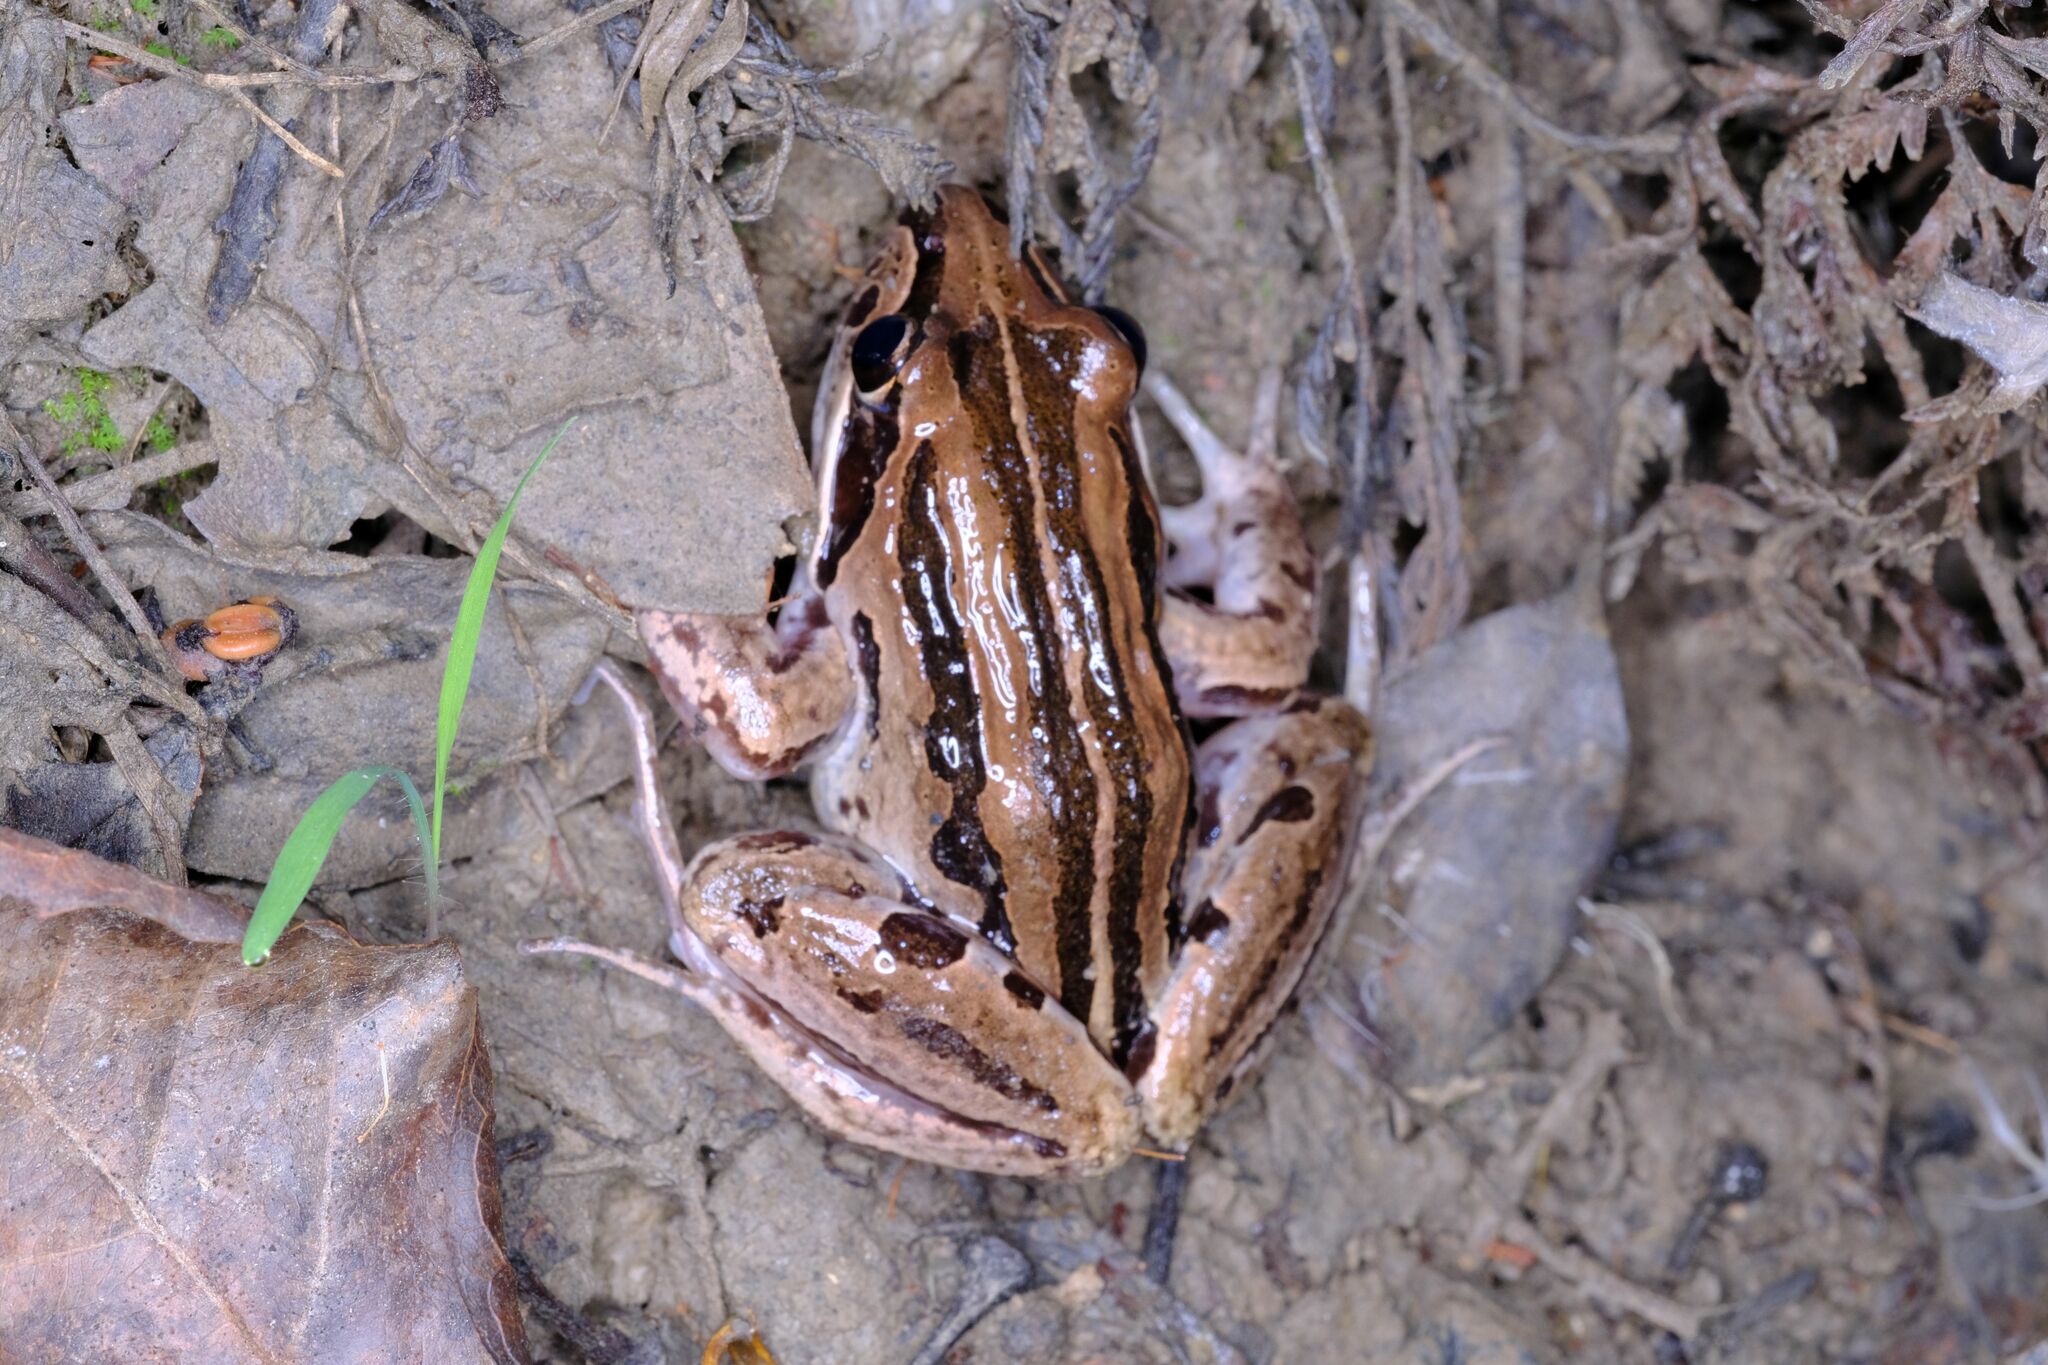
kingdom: Animalia
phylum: Chordata
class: Amphibia
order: Anura
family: Limnodynastidae
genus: Limnodynastes
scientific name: Limnodynastes peronii
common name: Brown frog
